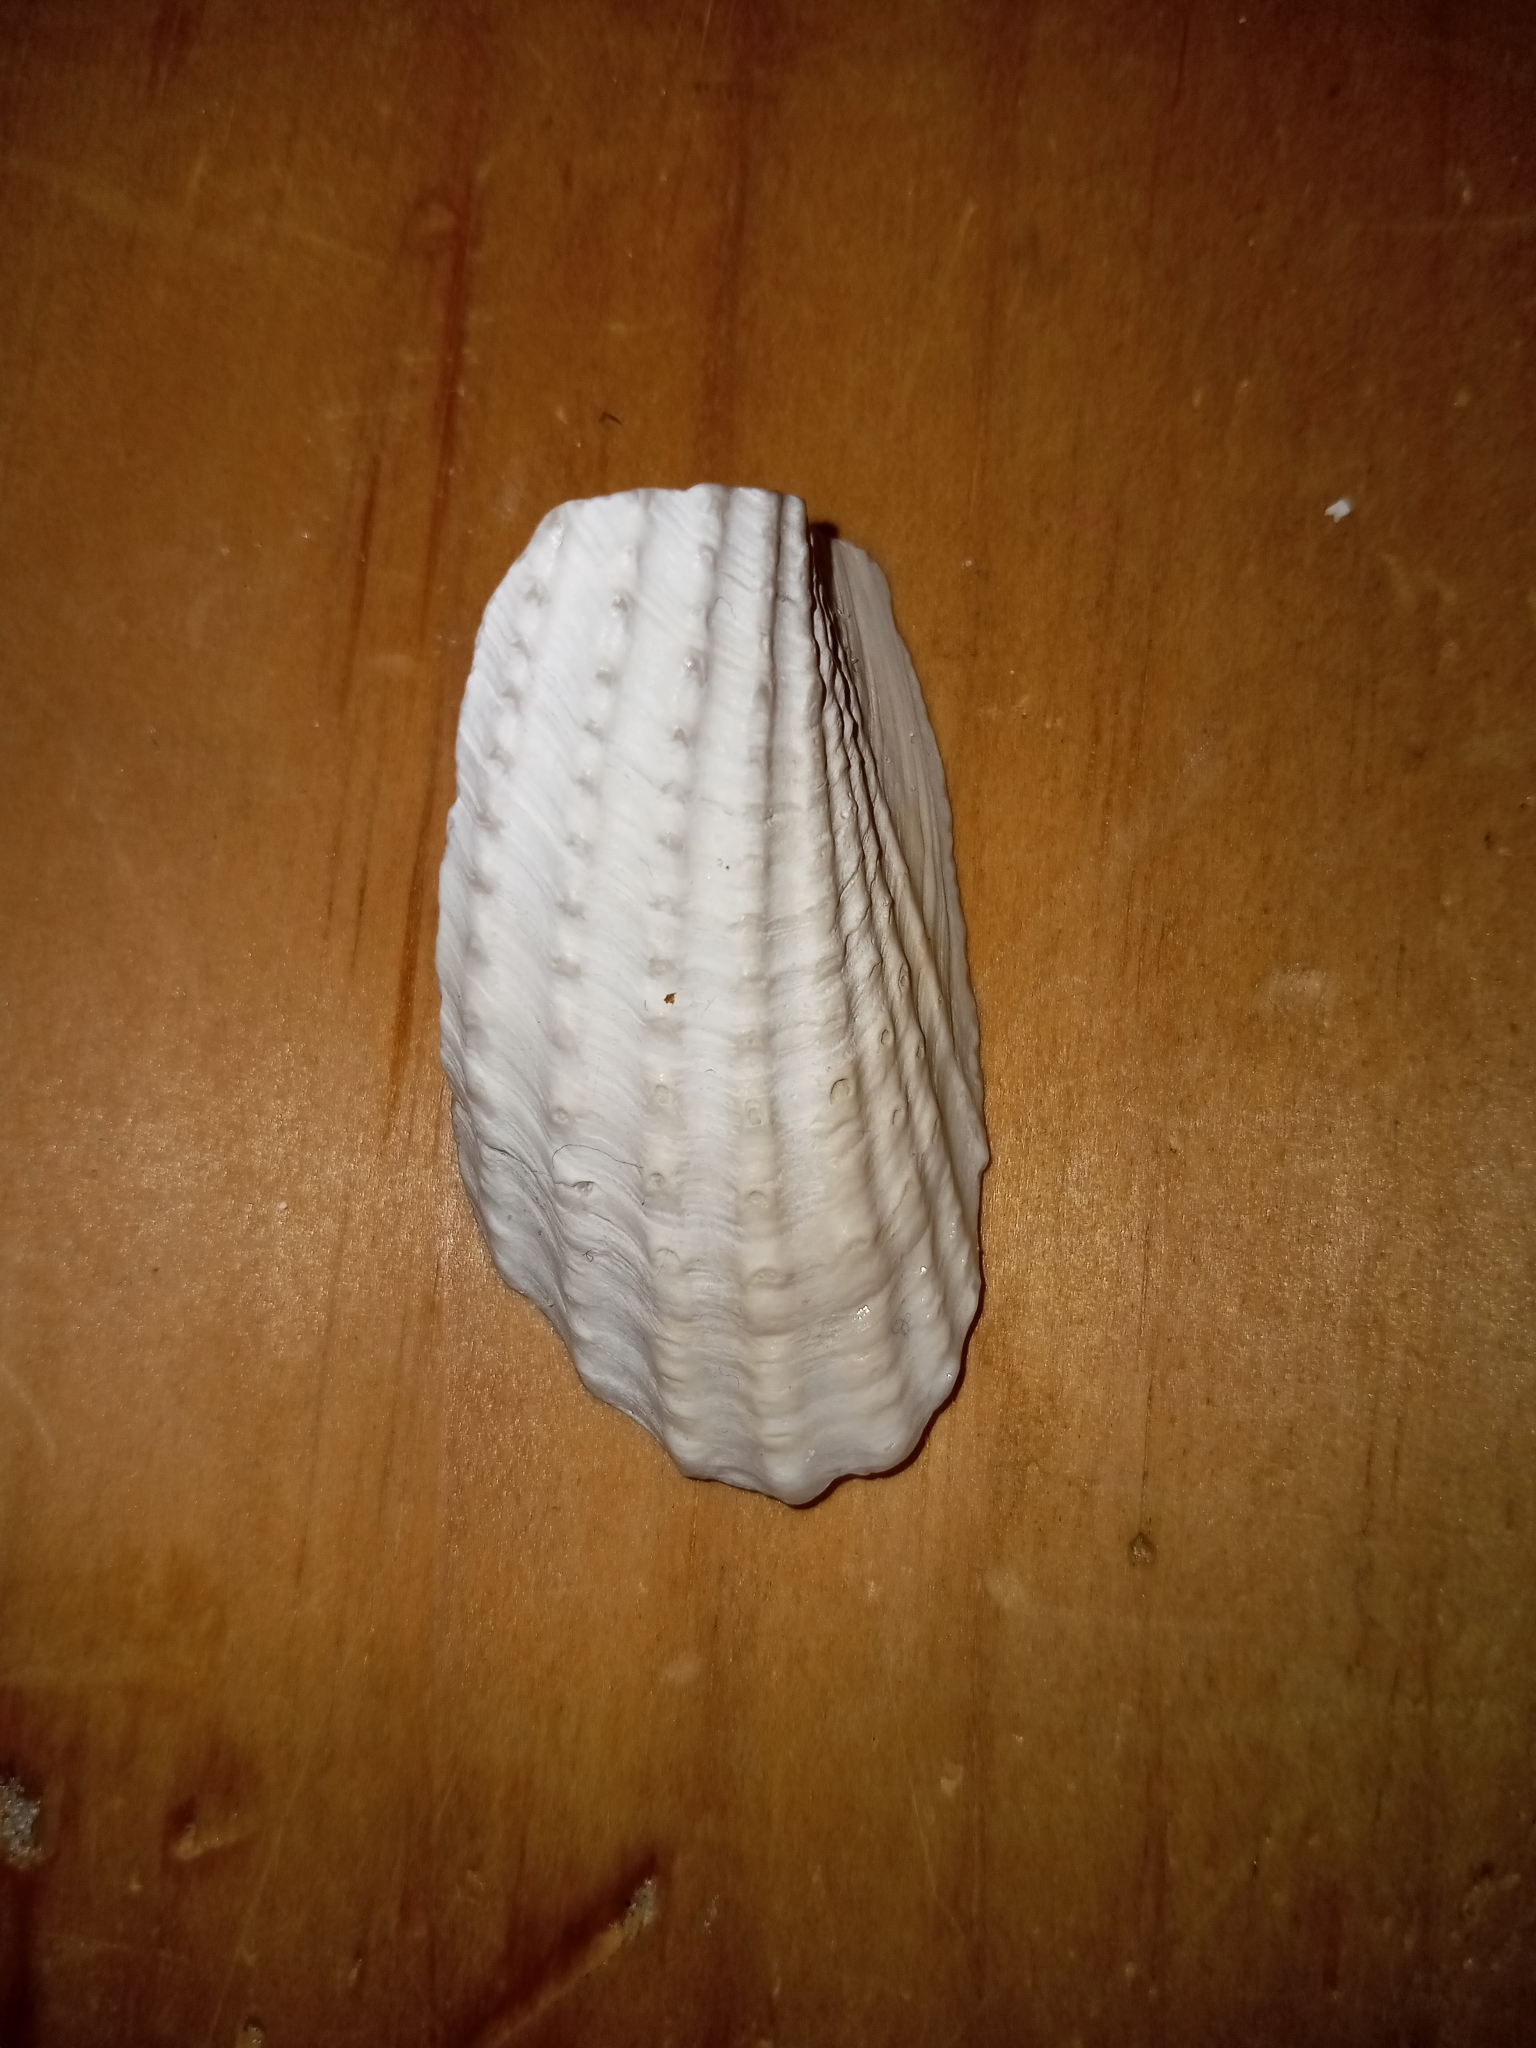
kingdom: Animalia
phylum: Mollusca
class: Bivalvia
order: Myida
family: Pholadidae
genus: Cyrtopleura
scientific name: Cyrtopleura costata
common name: Angel wing
